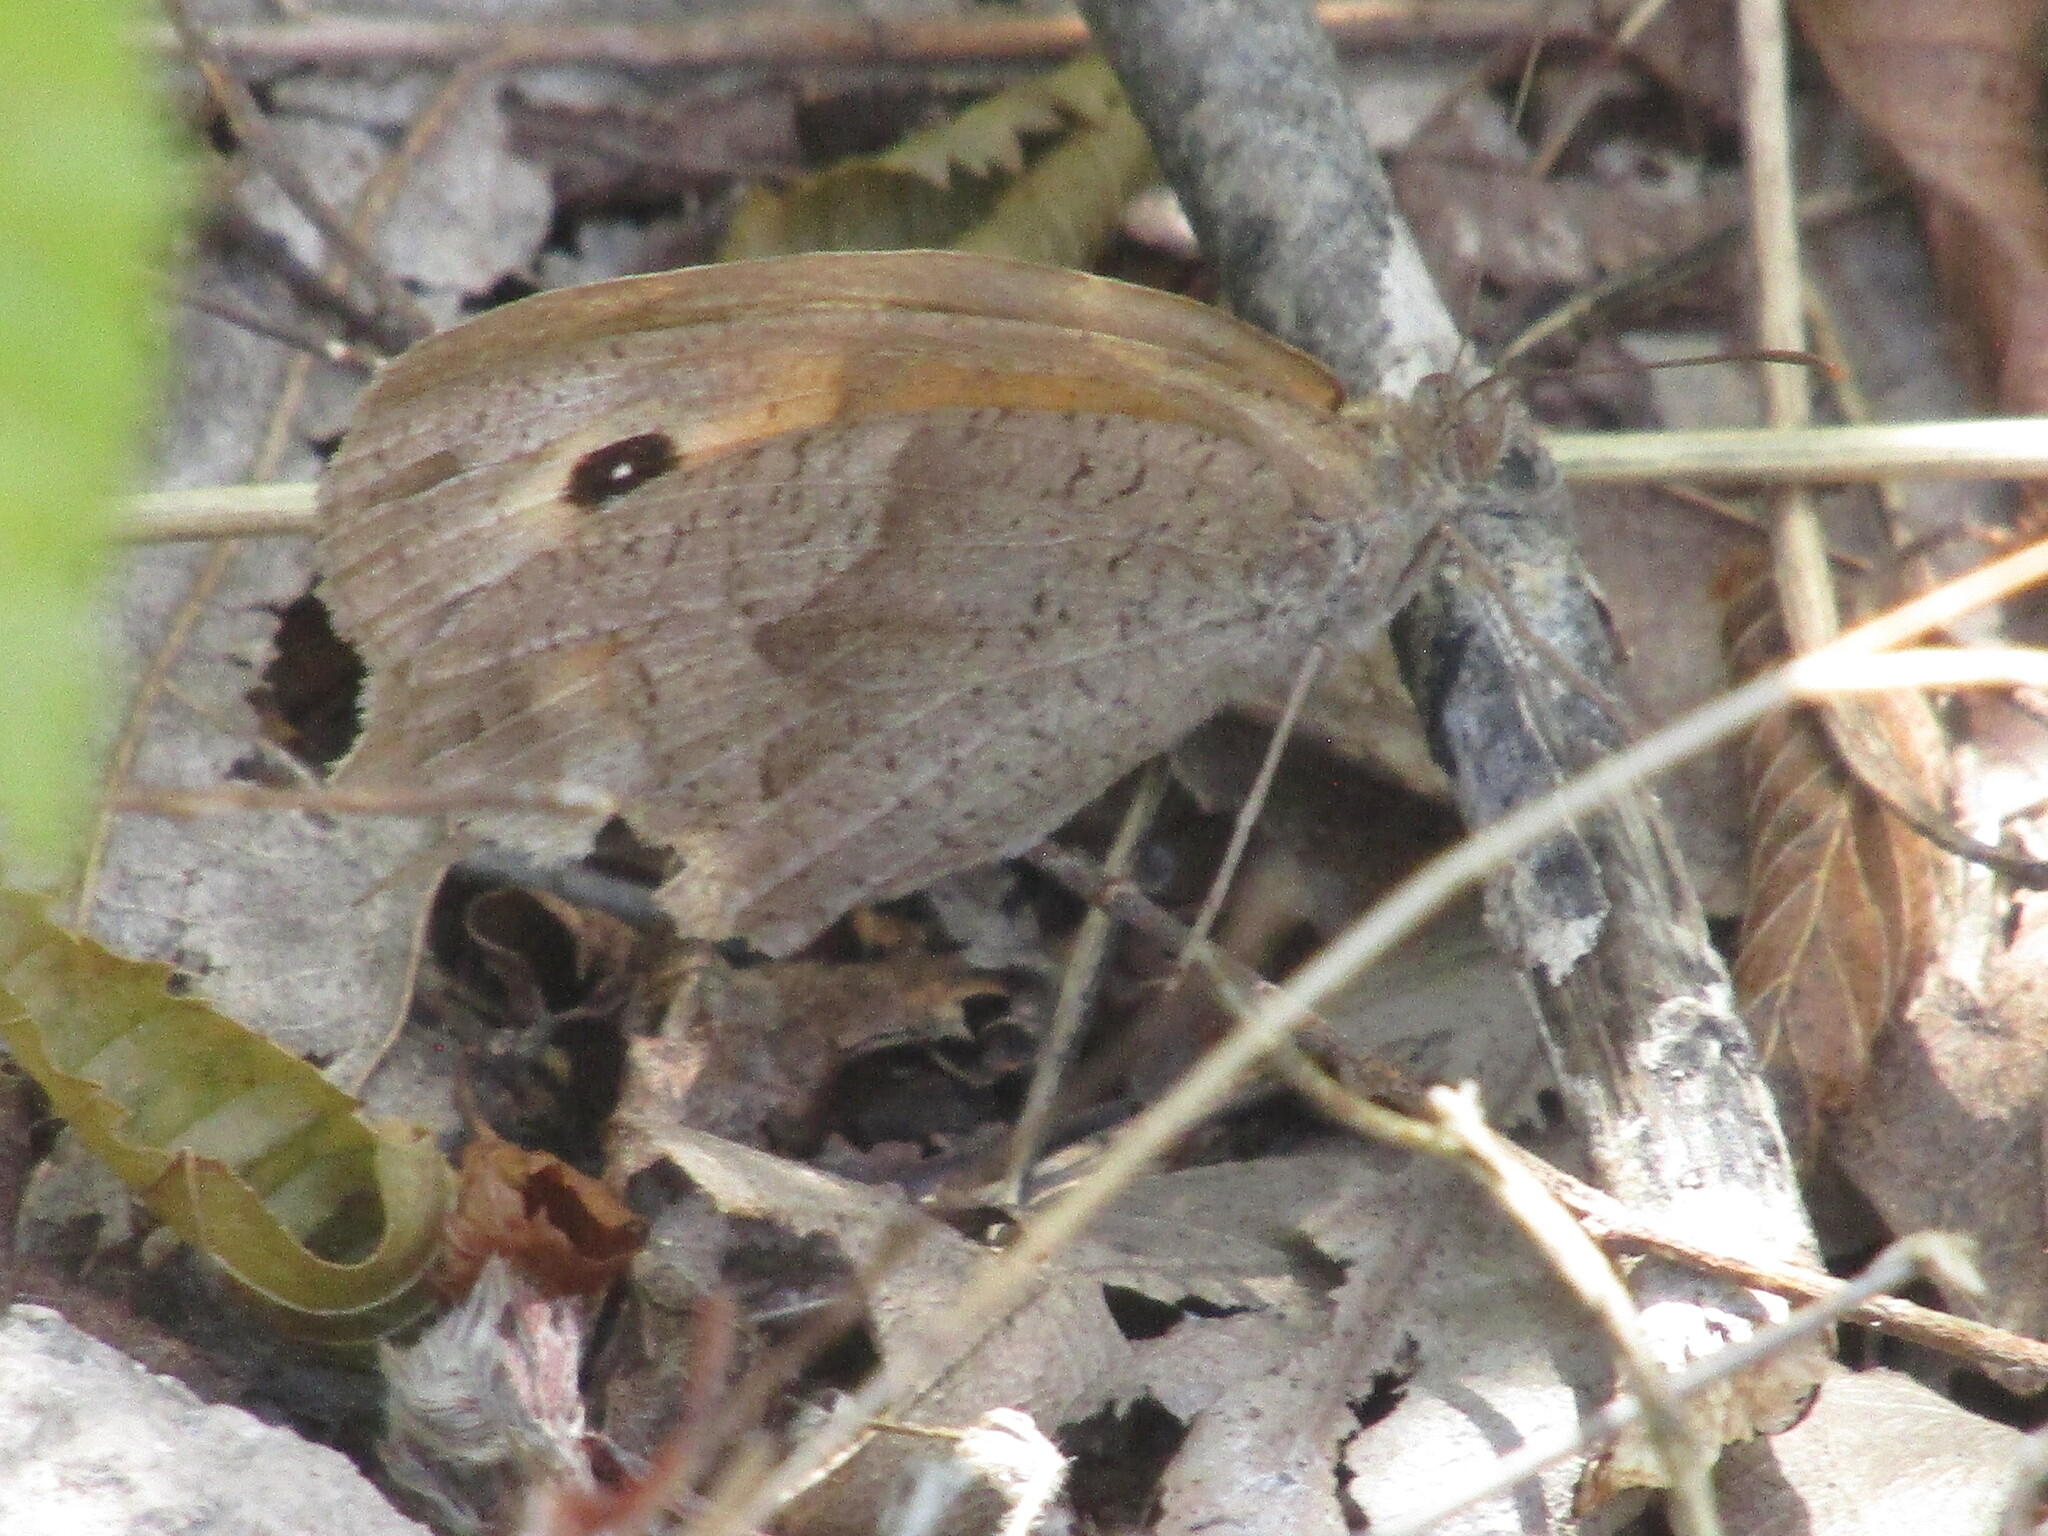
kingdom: Animalia
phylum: Arthropoda
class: Insecta
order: Lepidoptera
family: Nymphalidae
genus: Maniola
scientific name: Maniola jurtina
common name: Meadow brown
